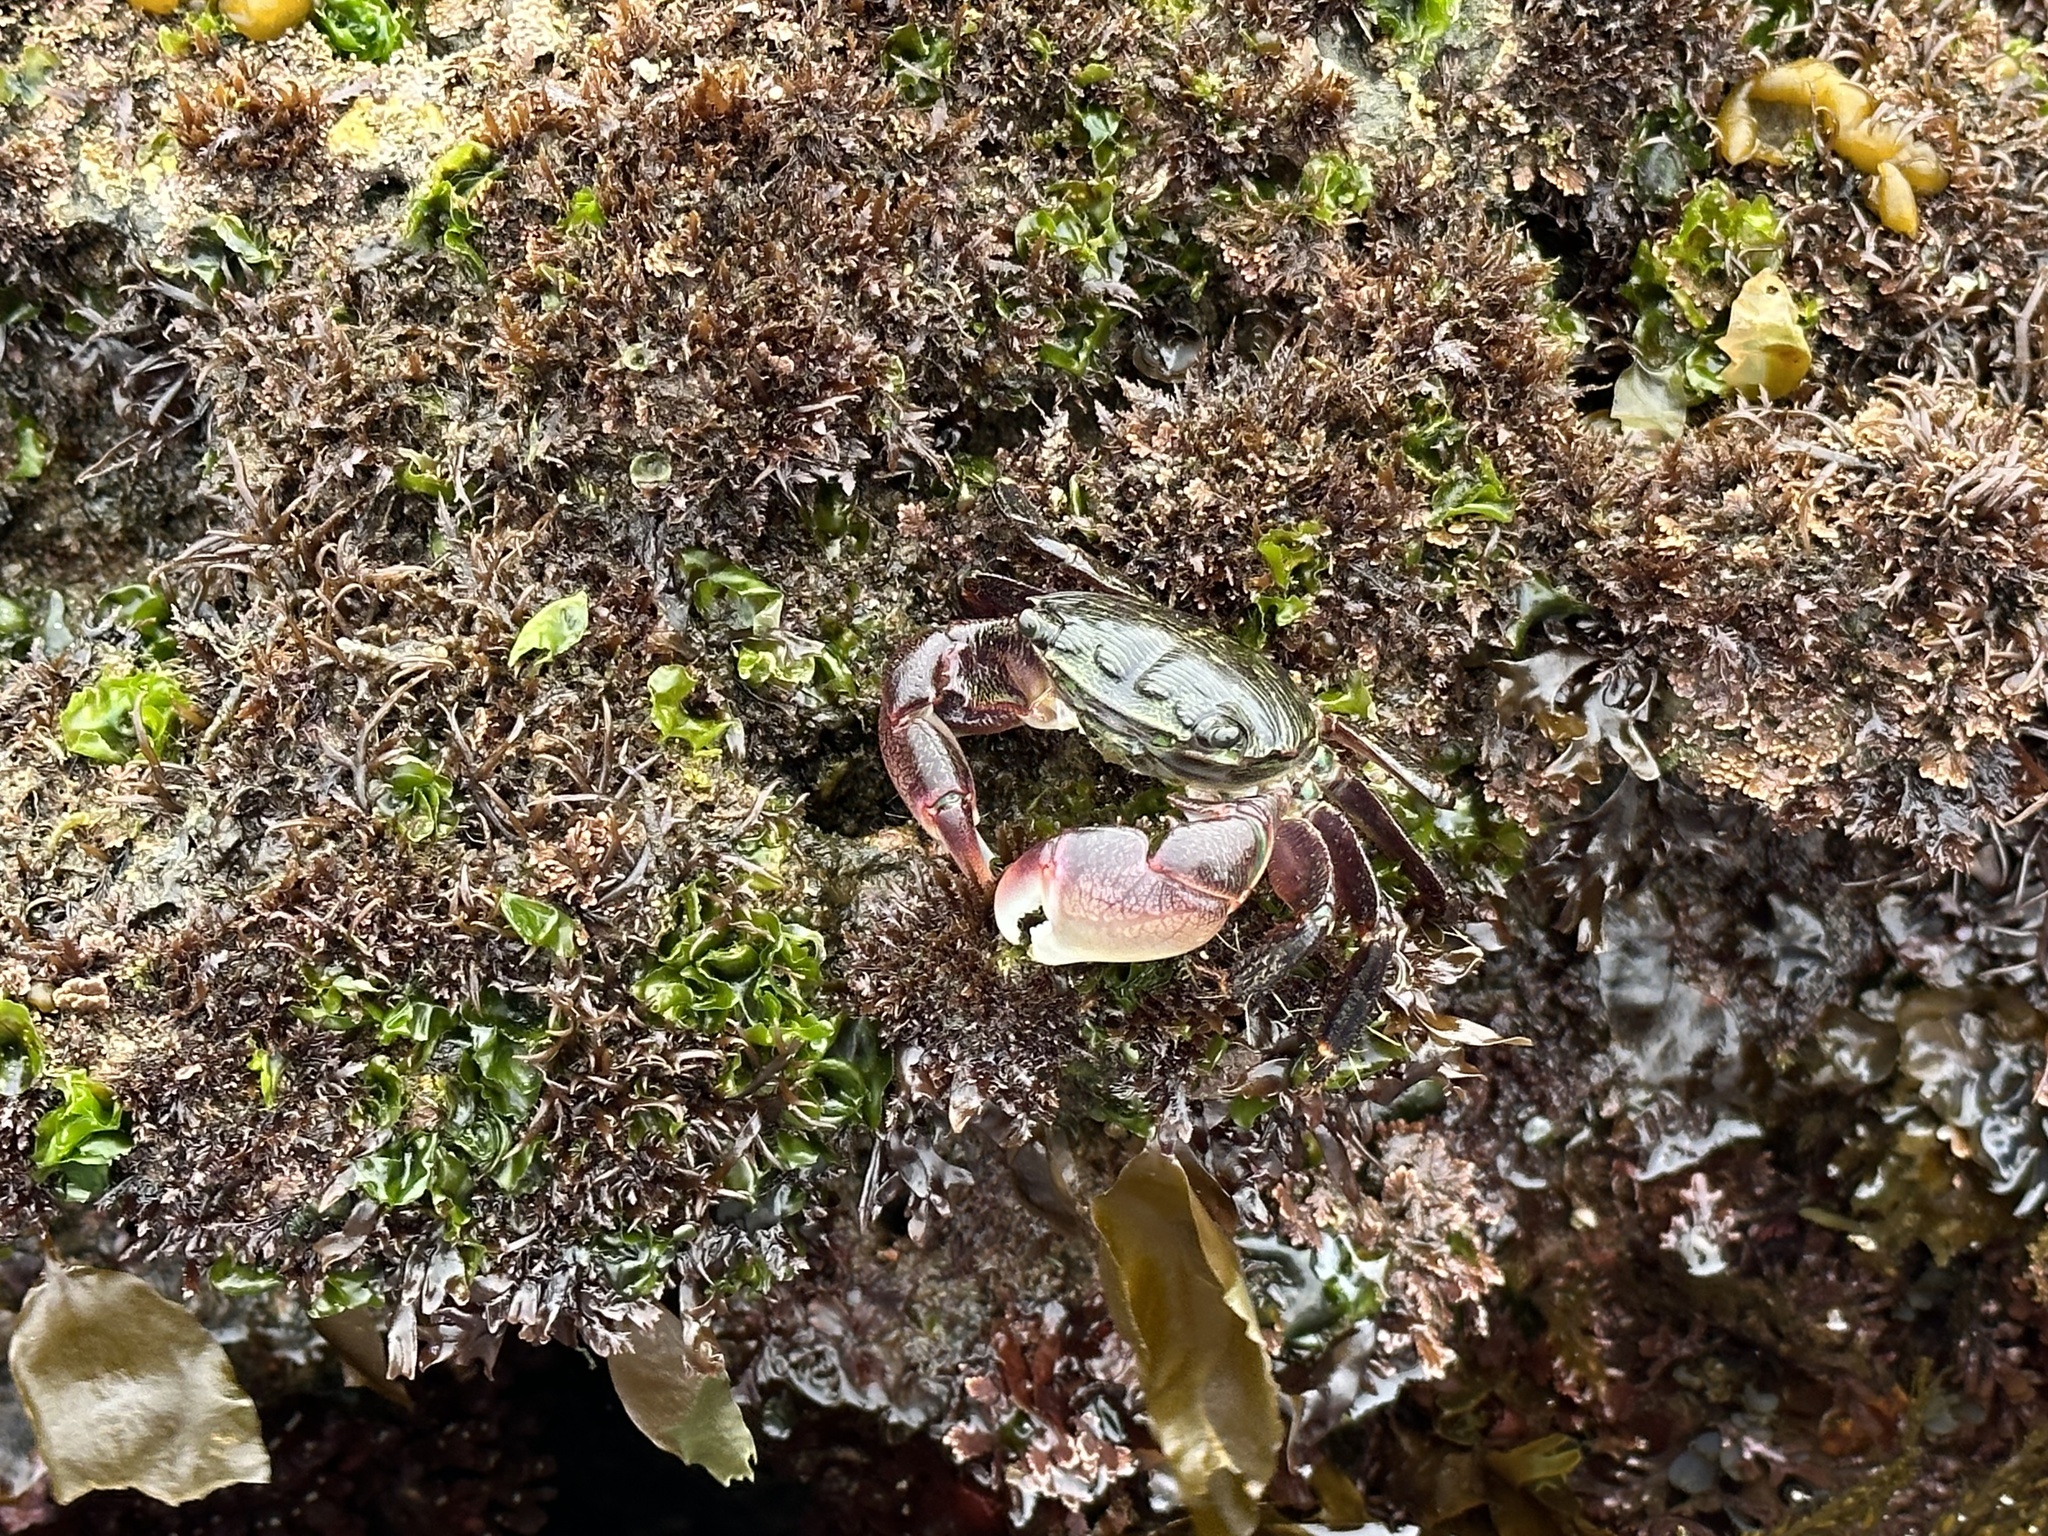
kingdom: Animalia
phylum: Arthropoda
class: Malacostraca
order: Decapoda
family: Grapsidae
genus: Pachygrapsus
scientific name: Pachygrapsus crassipes
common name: Striped shore crab
